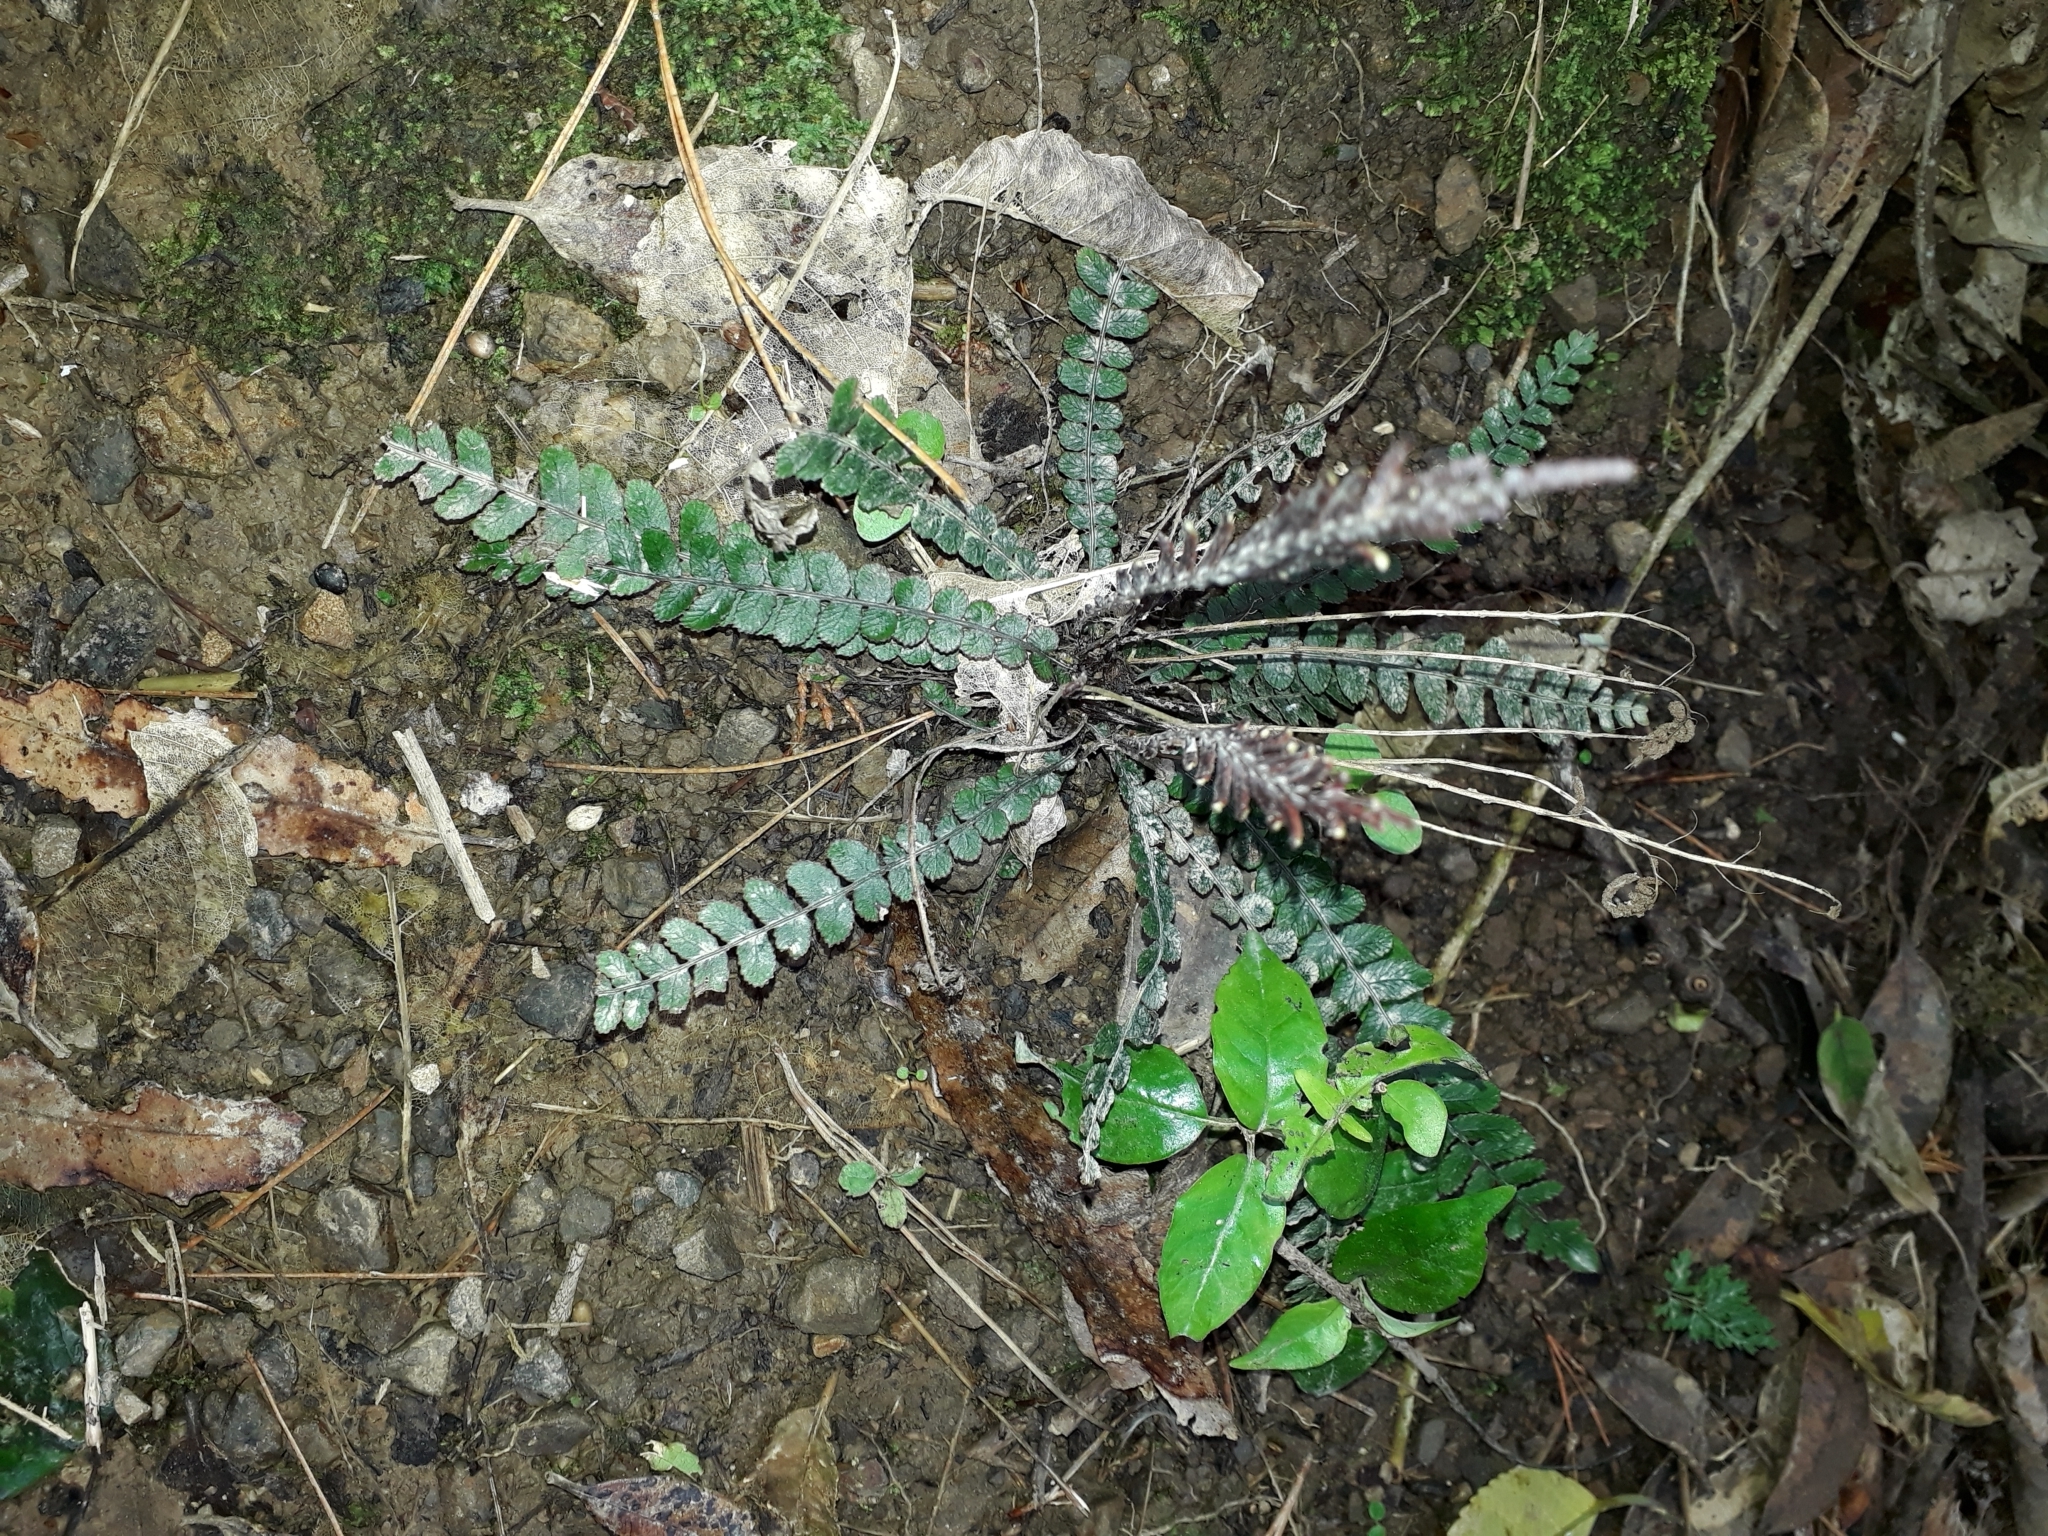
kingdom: Plantae
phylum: Tracheophyta
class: Polypodiopsida
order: Polypodiales
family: Blechnaceae
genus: Austroblechnum
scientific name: Austroblechnum membranaceum
